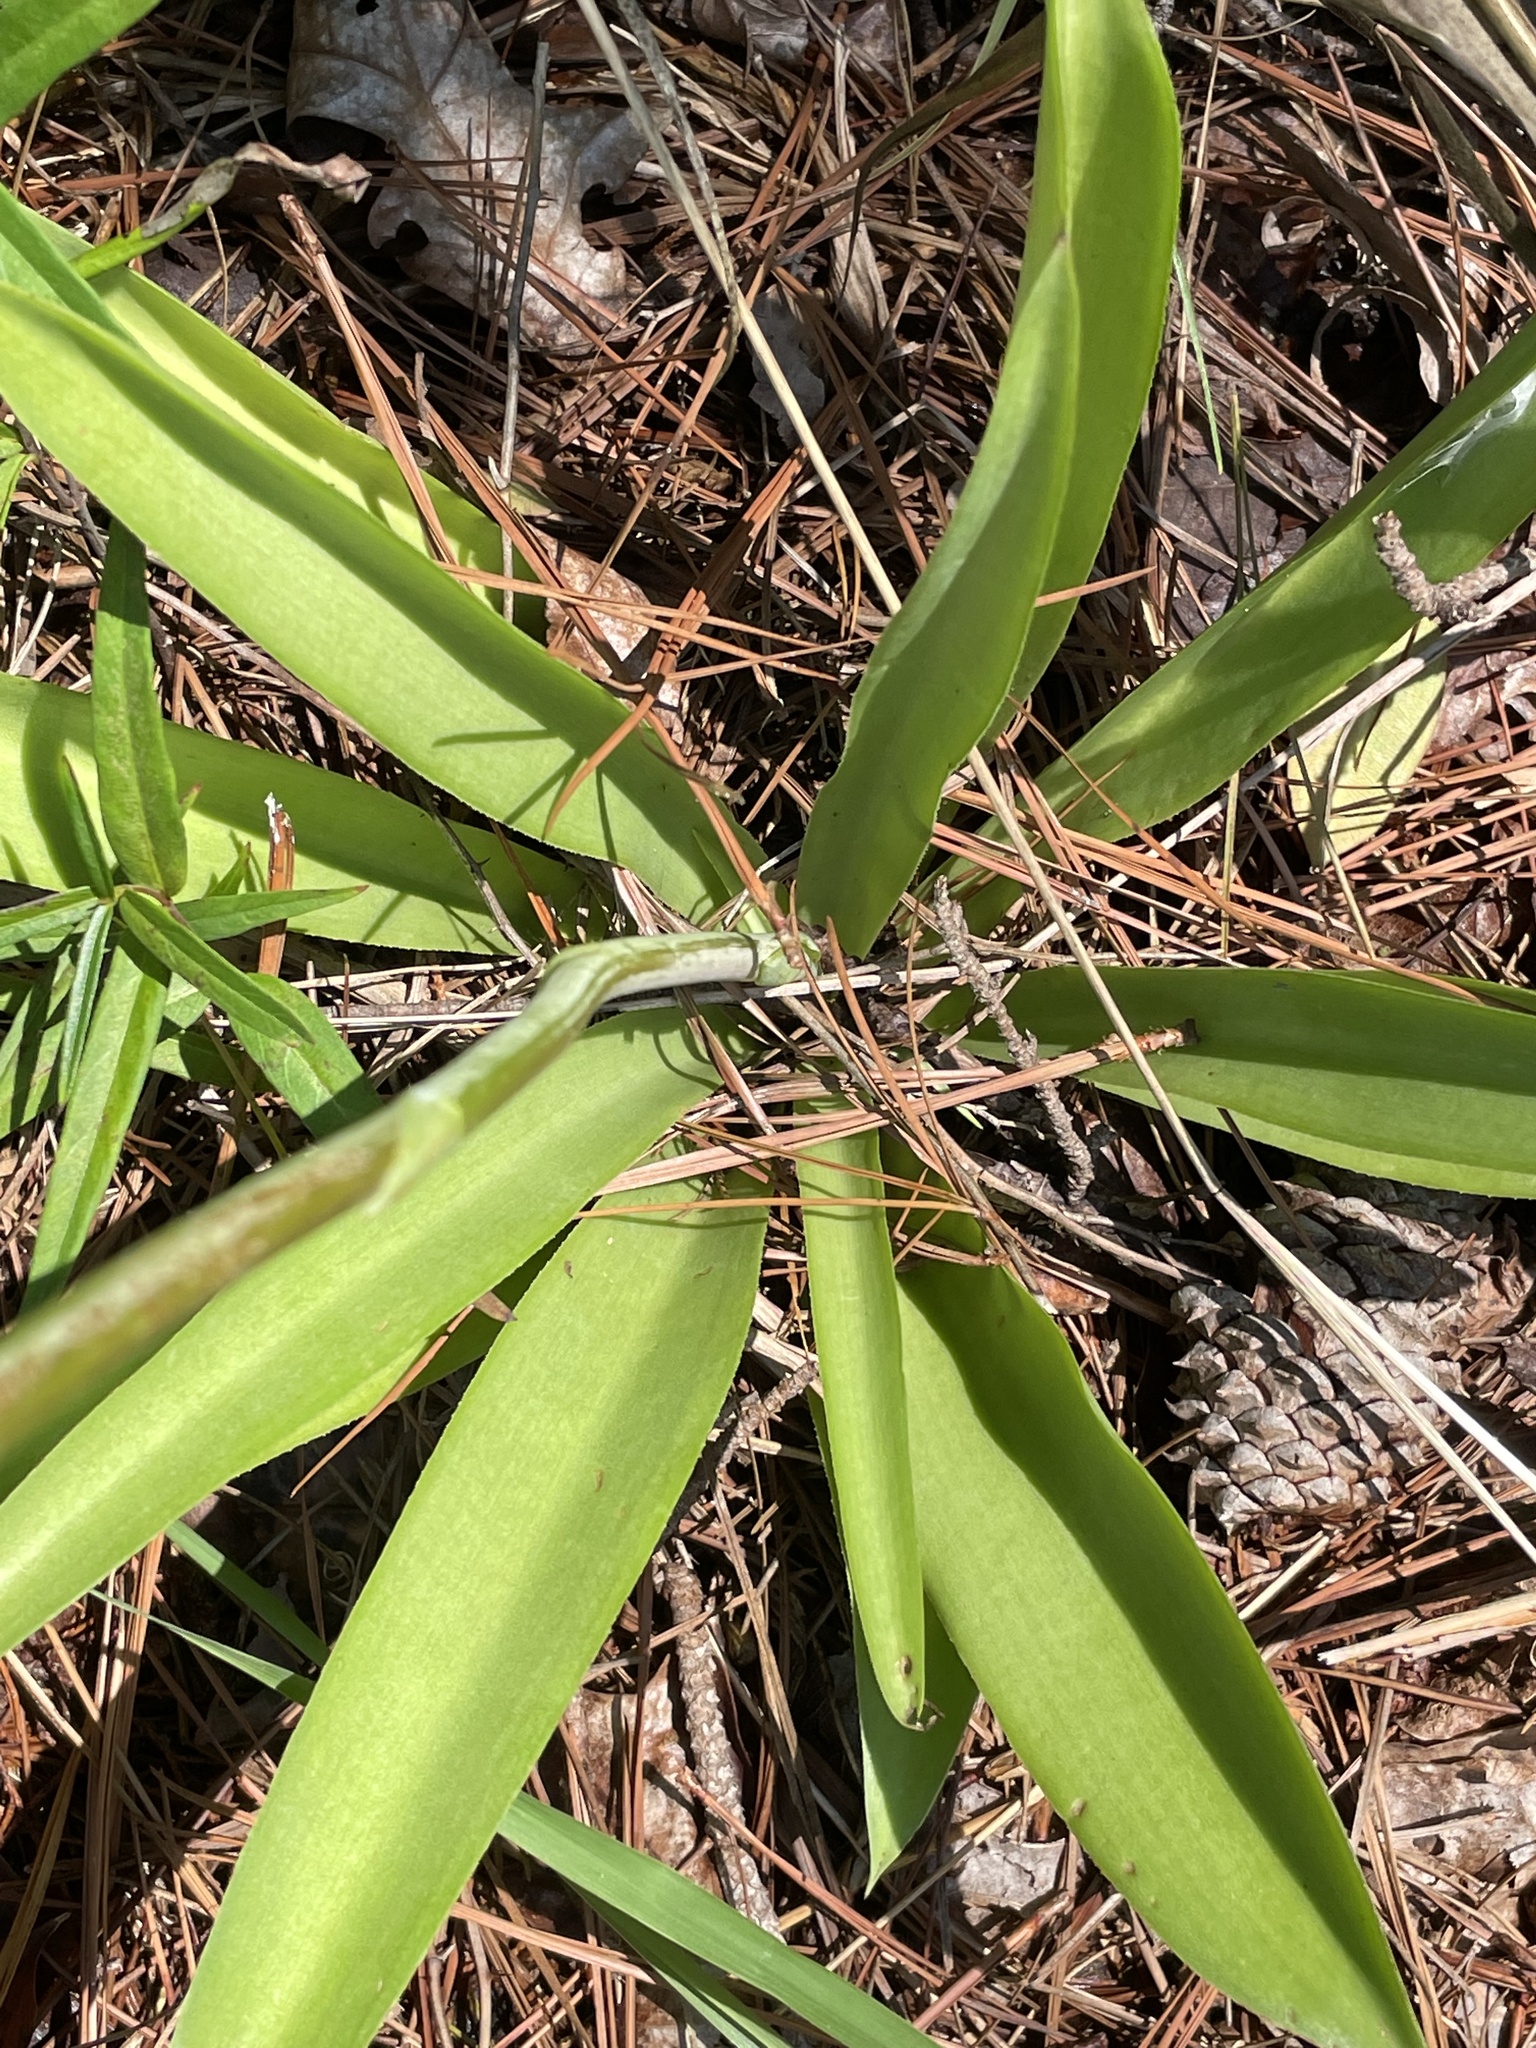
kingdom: Plantae
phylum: Tracheophyta
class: Liliopsida
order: Asparagales
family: Asparagaceae
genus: Agave
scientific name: Agave virginica
